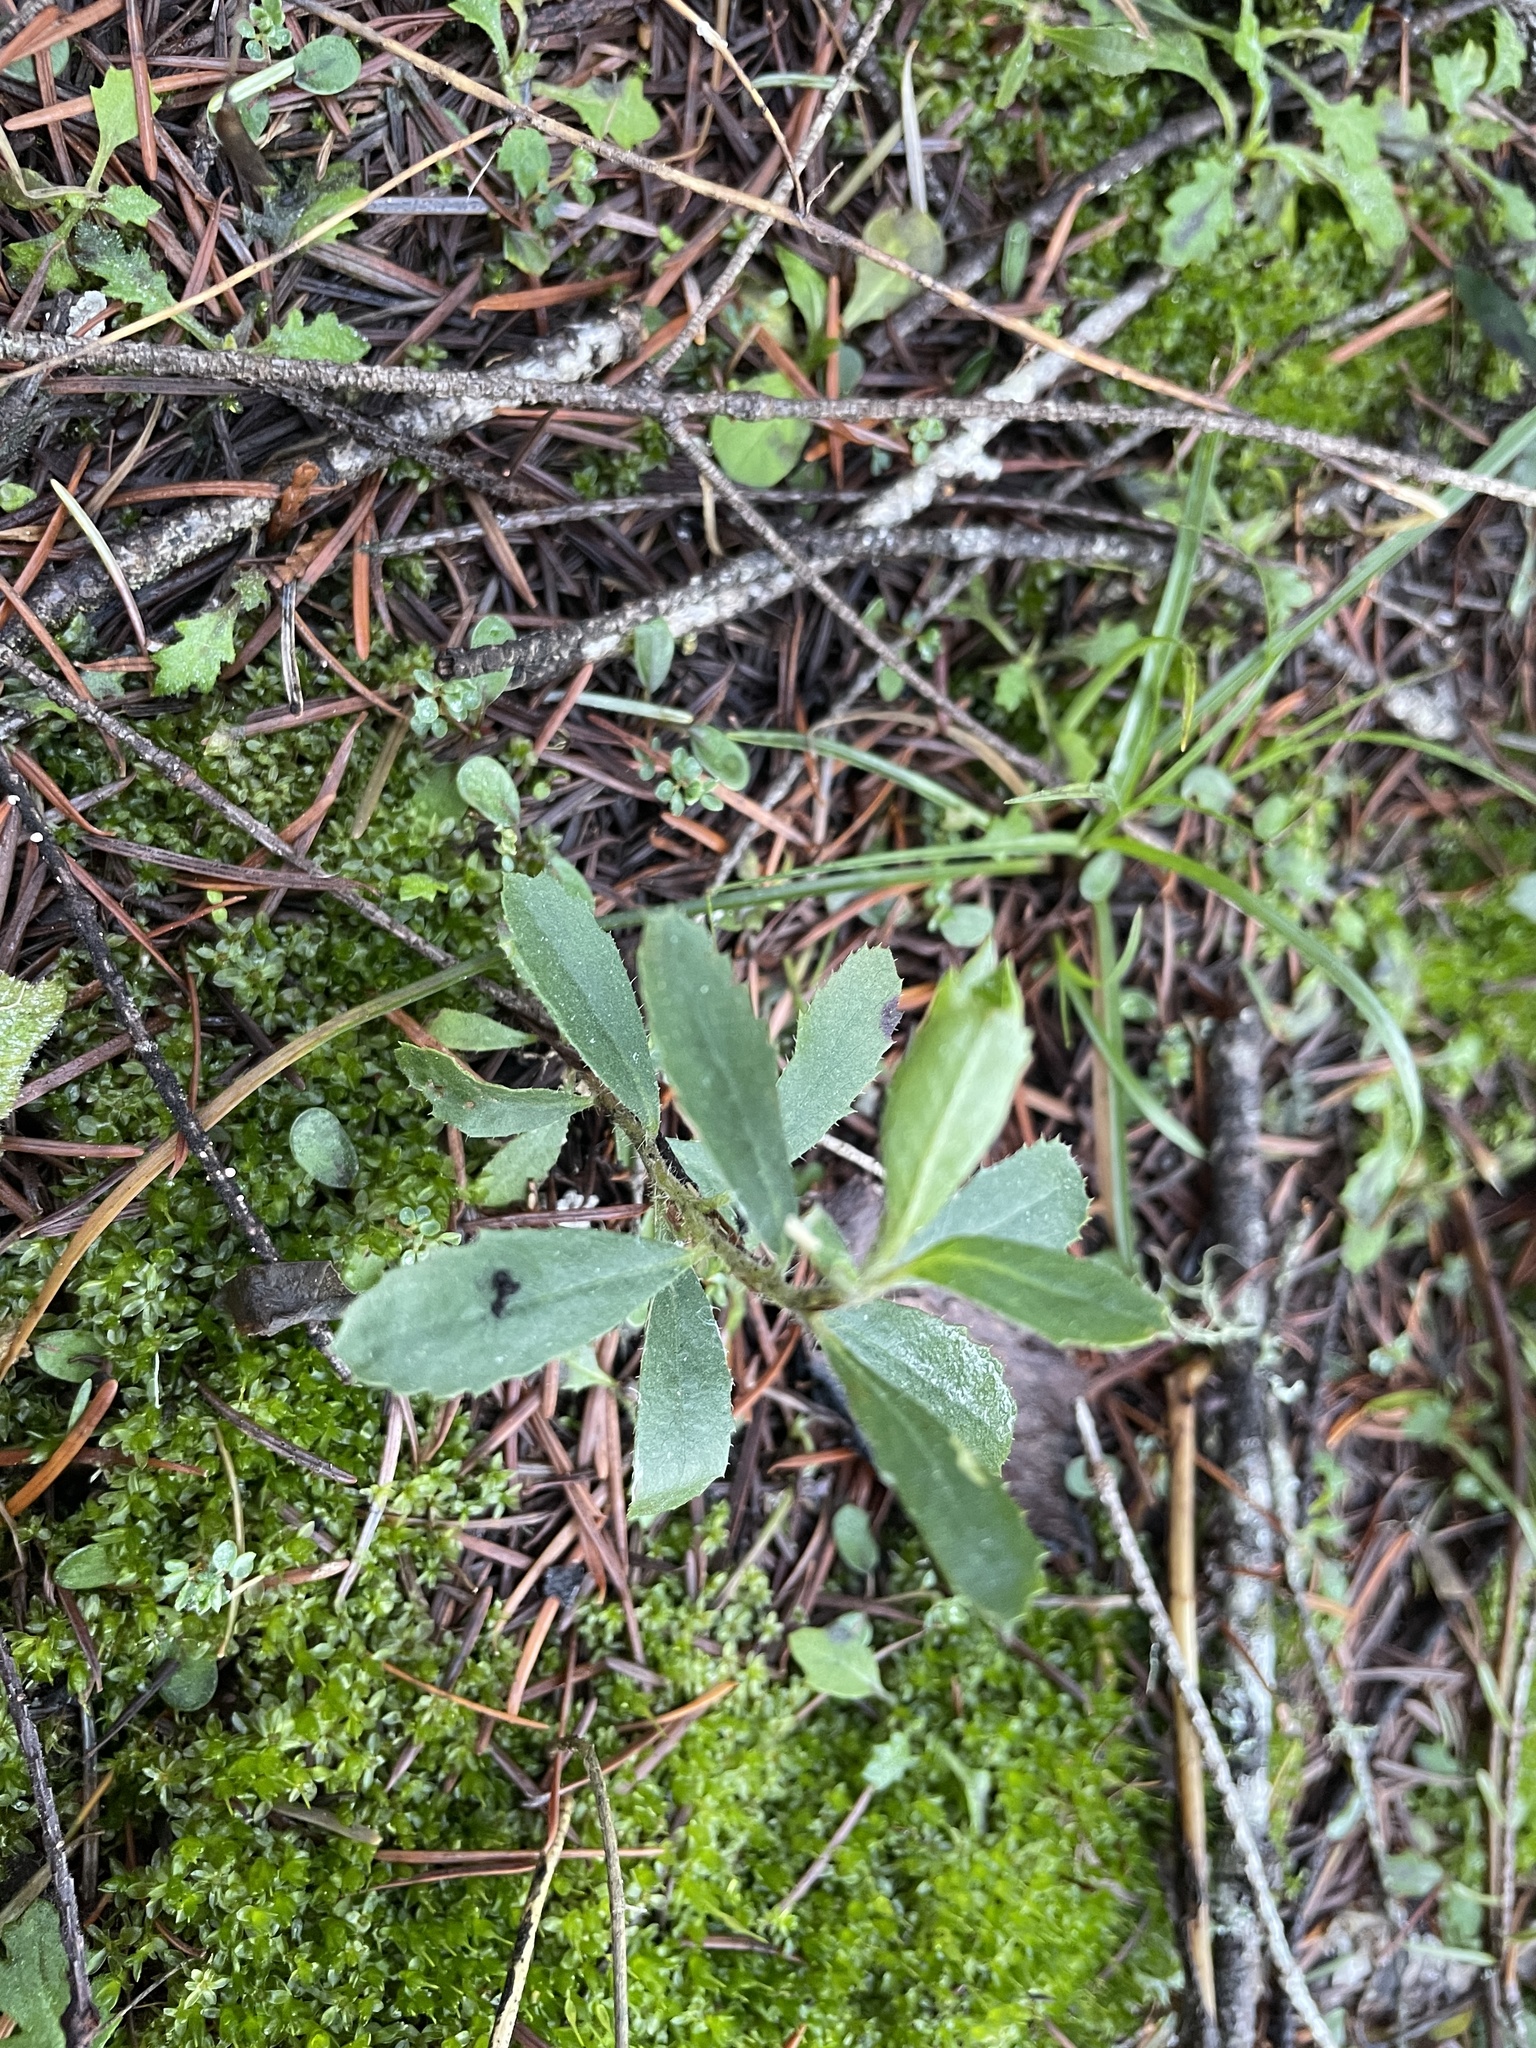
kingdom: Plantae
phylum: Tracheophyta
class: Magnoliopsida
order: Ericales
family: Ericaceae
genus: Arbutus
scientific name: Arbutus menziesii
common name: Pacific madrone
